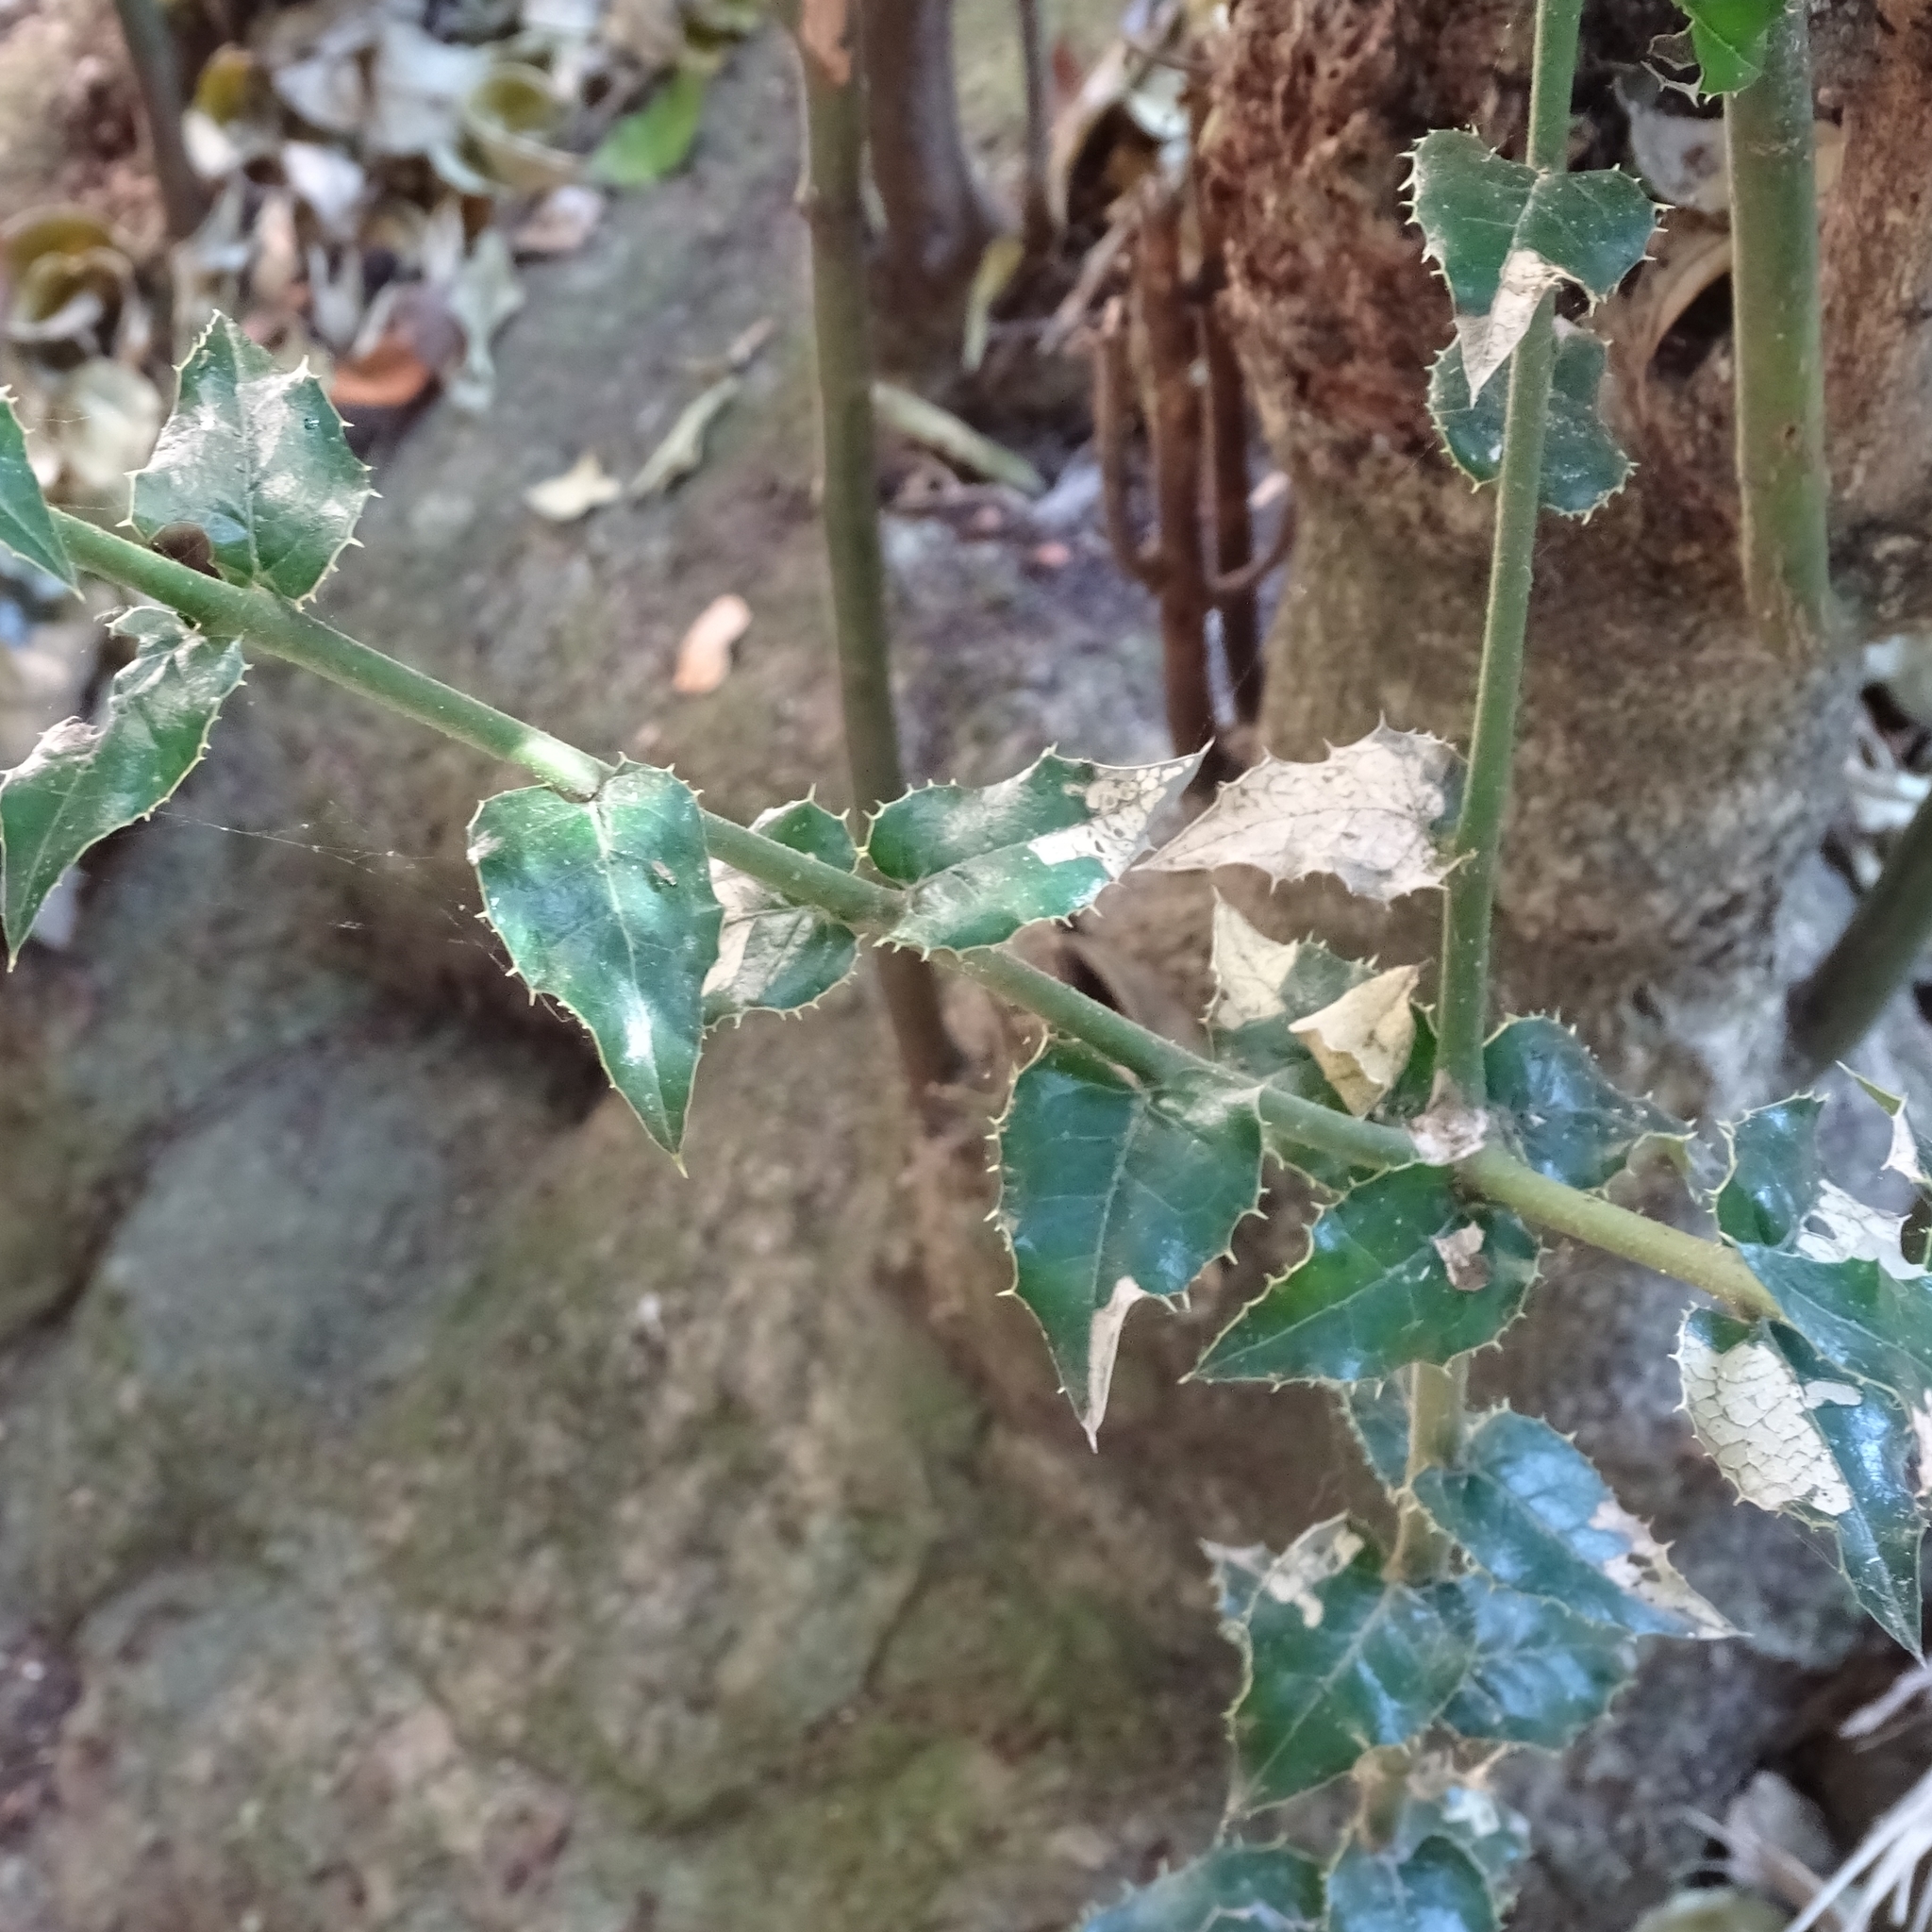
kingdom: Plantae
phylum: Tracheophyta
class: Magnoliopsida
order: Cardiopteridales
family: Cardiopteridaceae
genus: Citronella
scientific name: Citronella mucronata
